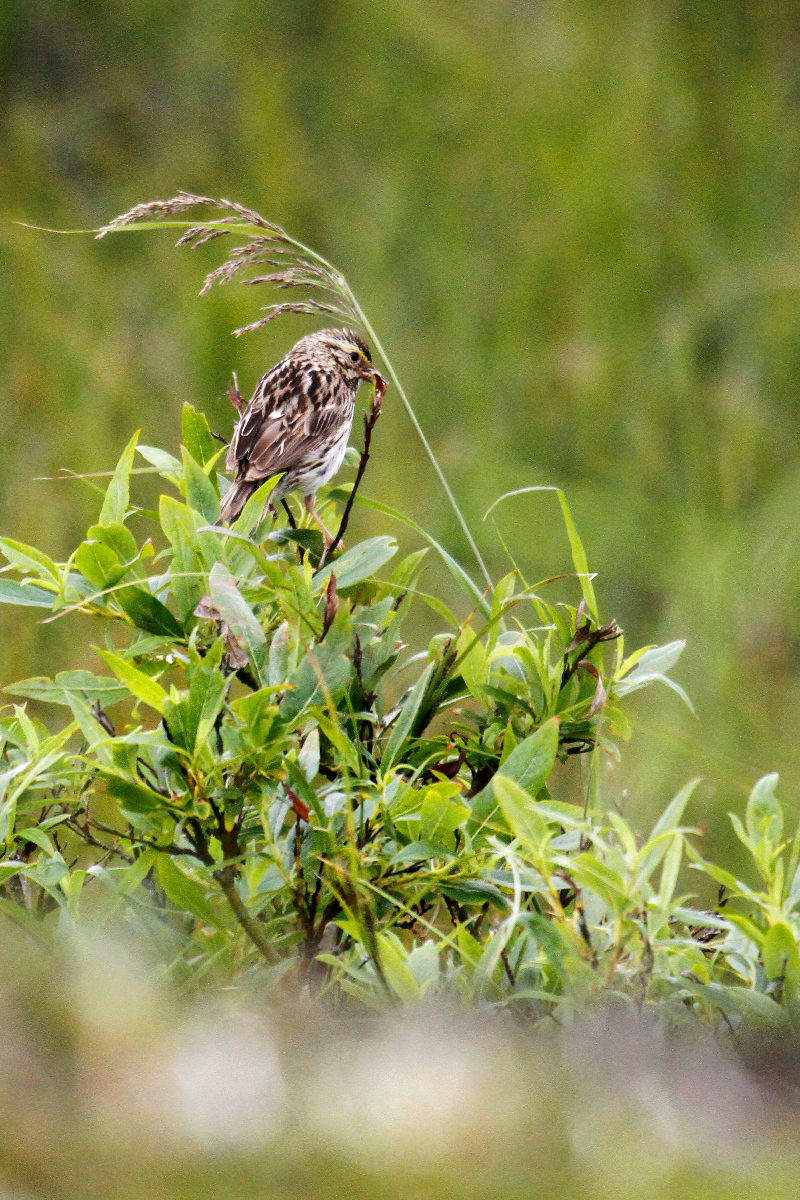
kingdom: Animalia
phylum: Chordata
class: Aves
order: Passeriformes
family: Passerellidae
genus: Passerculus
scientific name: Passerculus sandwichensis
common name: Savannah sparrow
